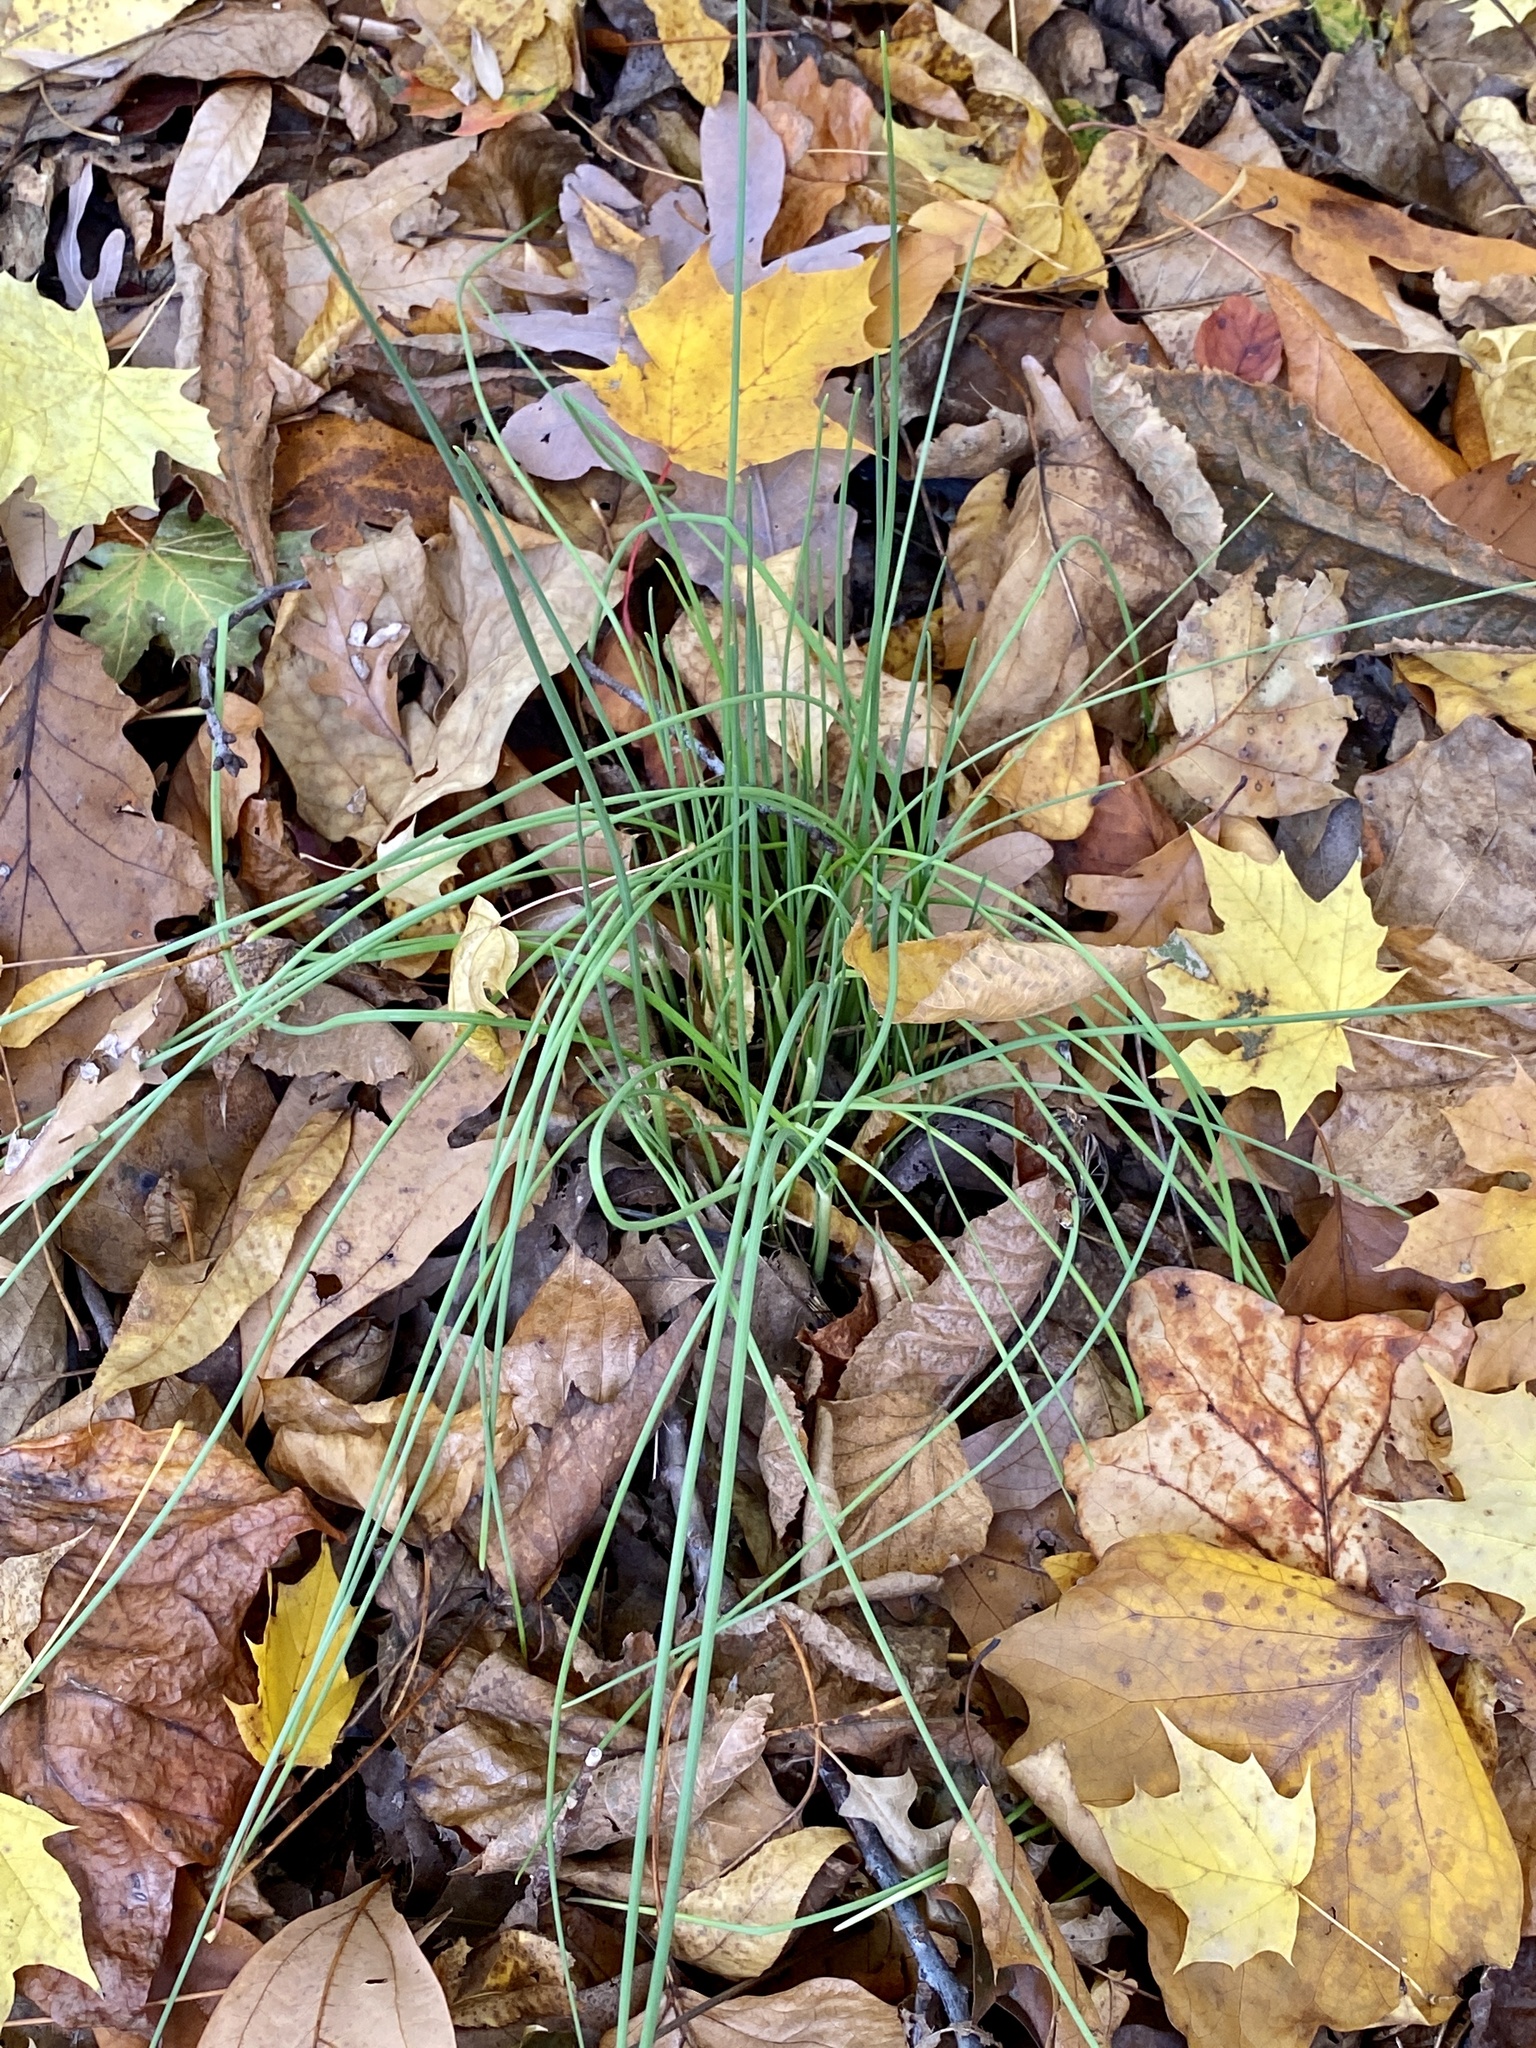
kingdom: Plantae
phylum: Tracheophyta
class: Liliopsida
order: Asparagales
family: Amaryllidaceae
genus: Allium
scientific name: Allium vineale
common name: Crow garlic
